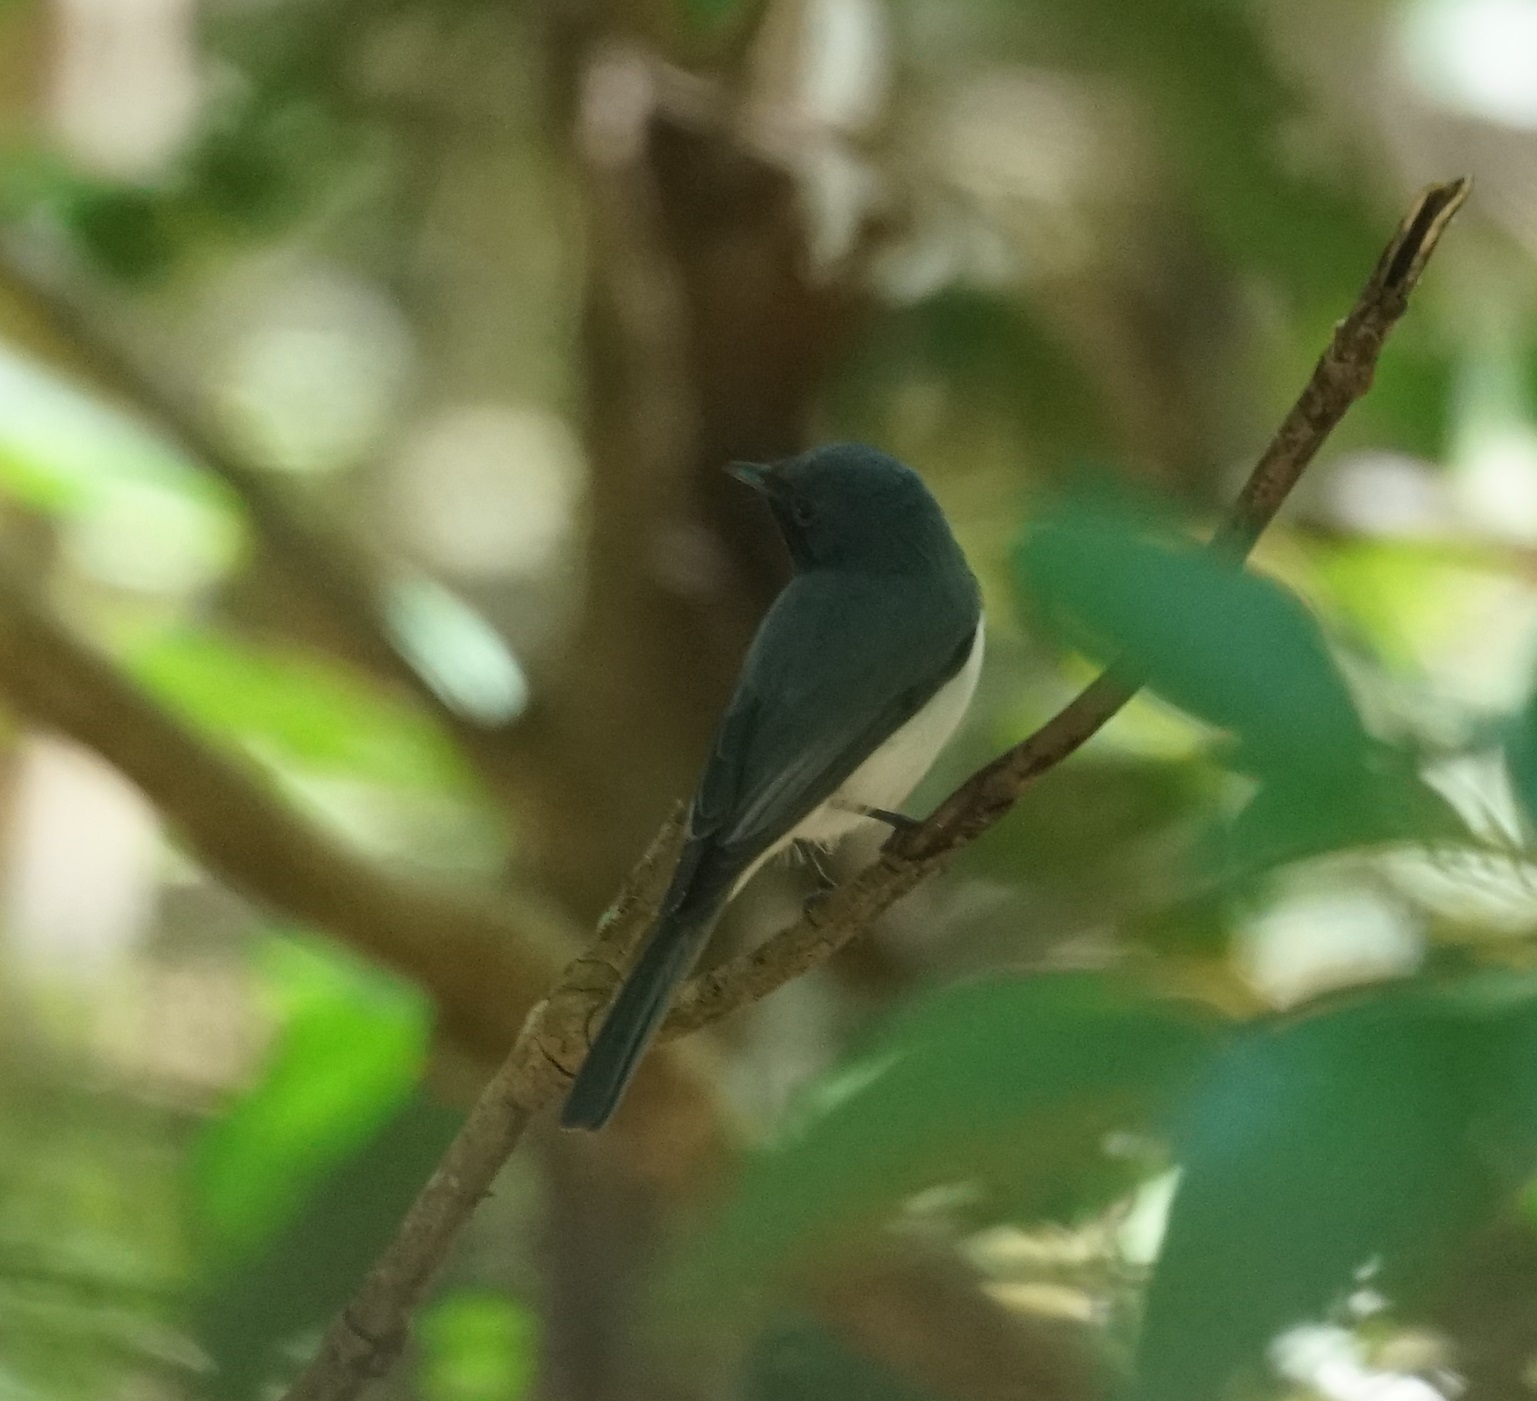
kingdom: Animalia
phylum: Chordata
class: Aves
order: Passeriformes
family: Monarchidae
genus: Myiagra
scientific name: Myiagra rubecula
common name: Leaden flycatcher
